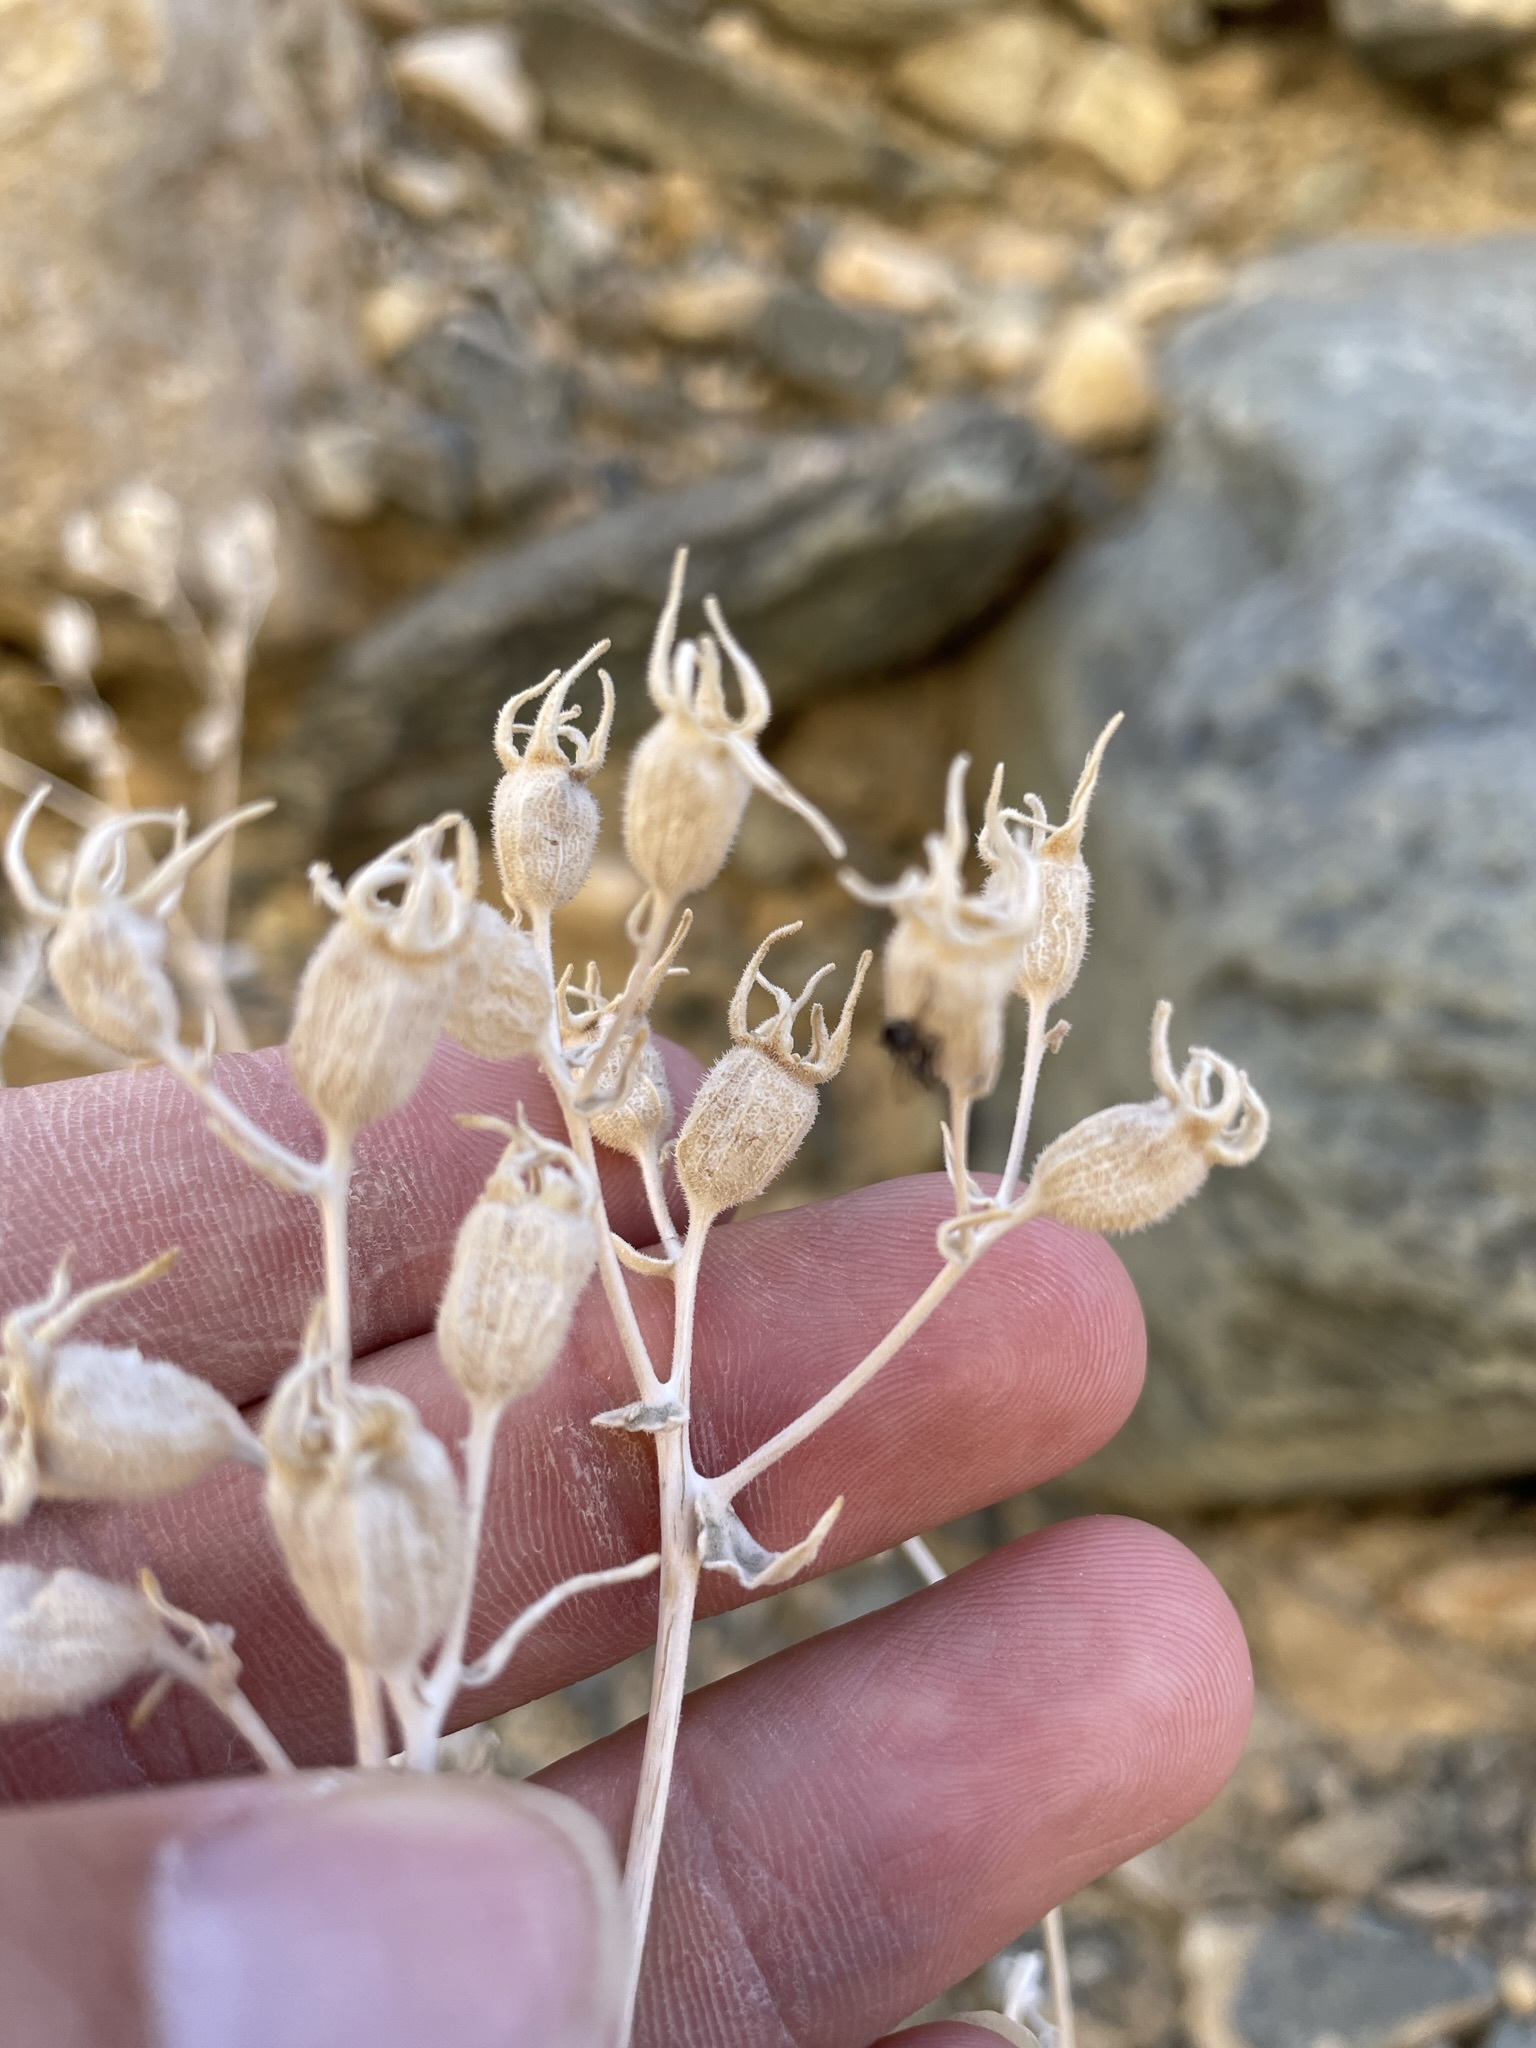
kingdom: Plantae
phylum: Tracheophyta
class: Magnoliopsida
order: Cornales
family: Loasaceae
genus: Mentzelia
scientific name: Mentzelia oreophila
